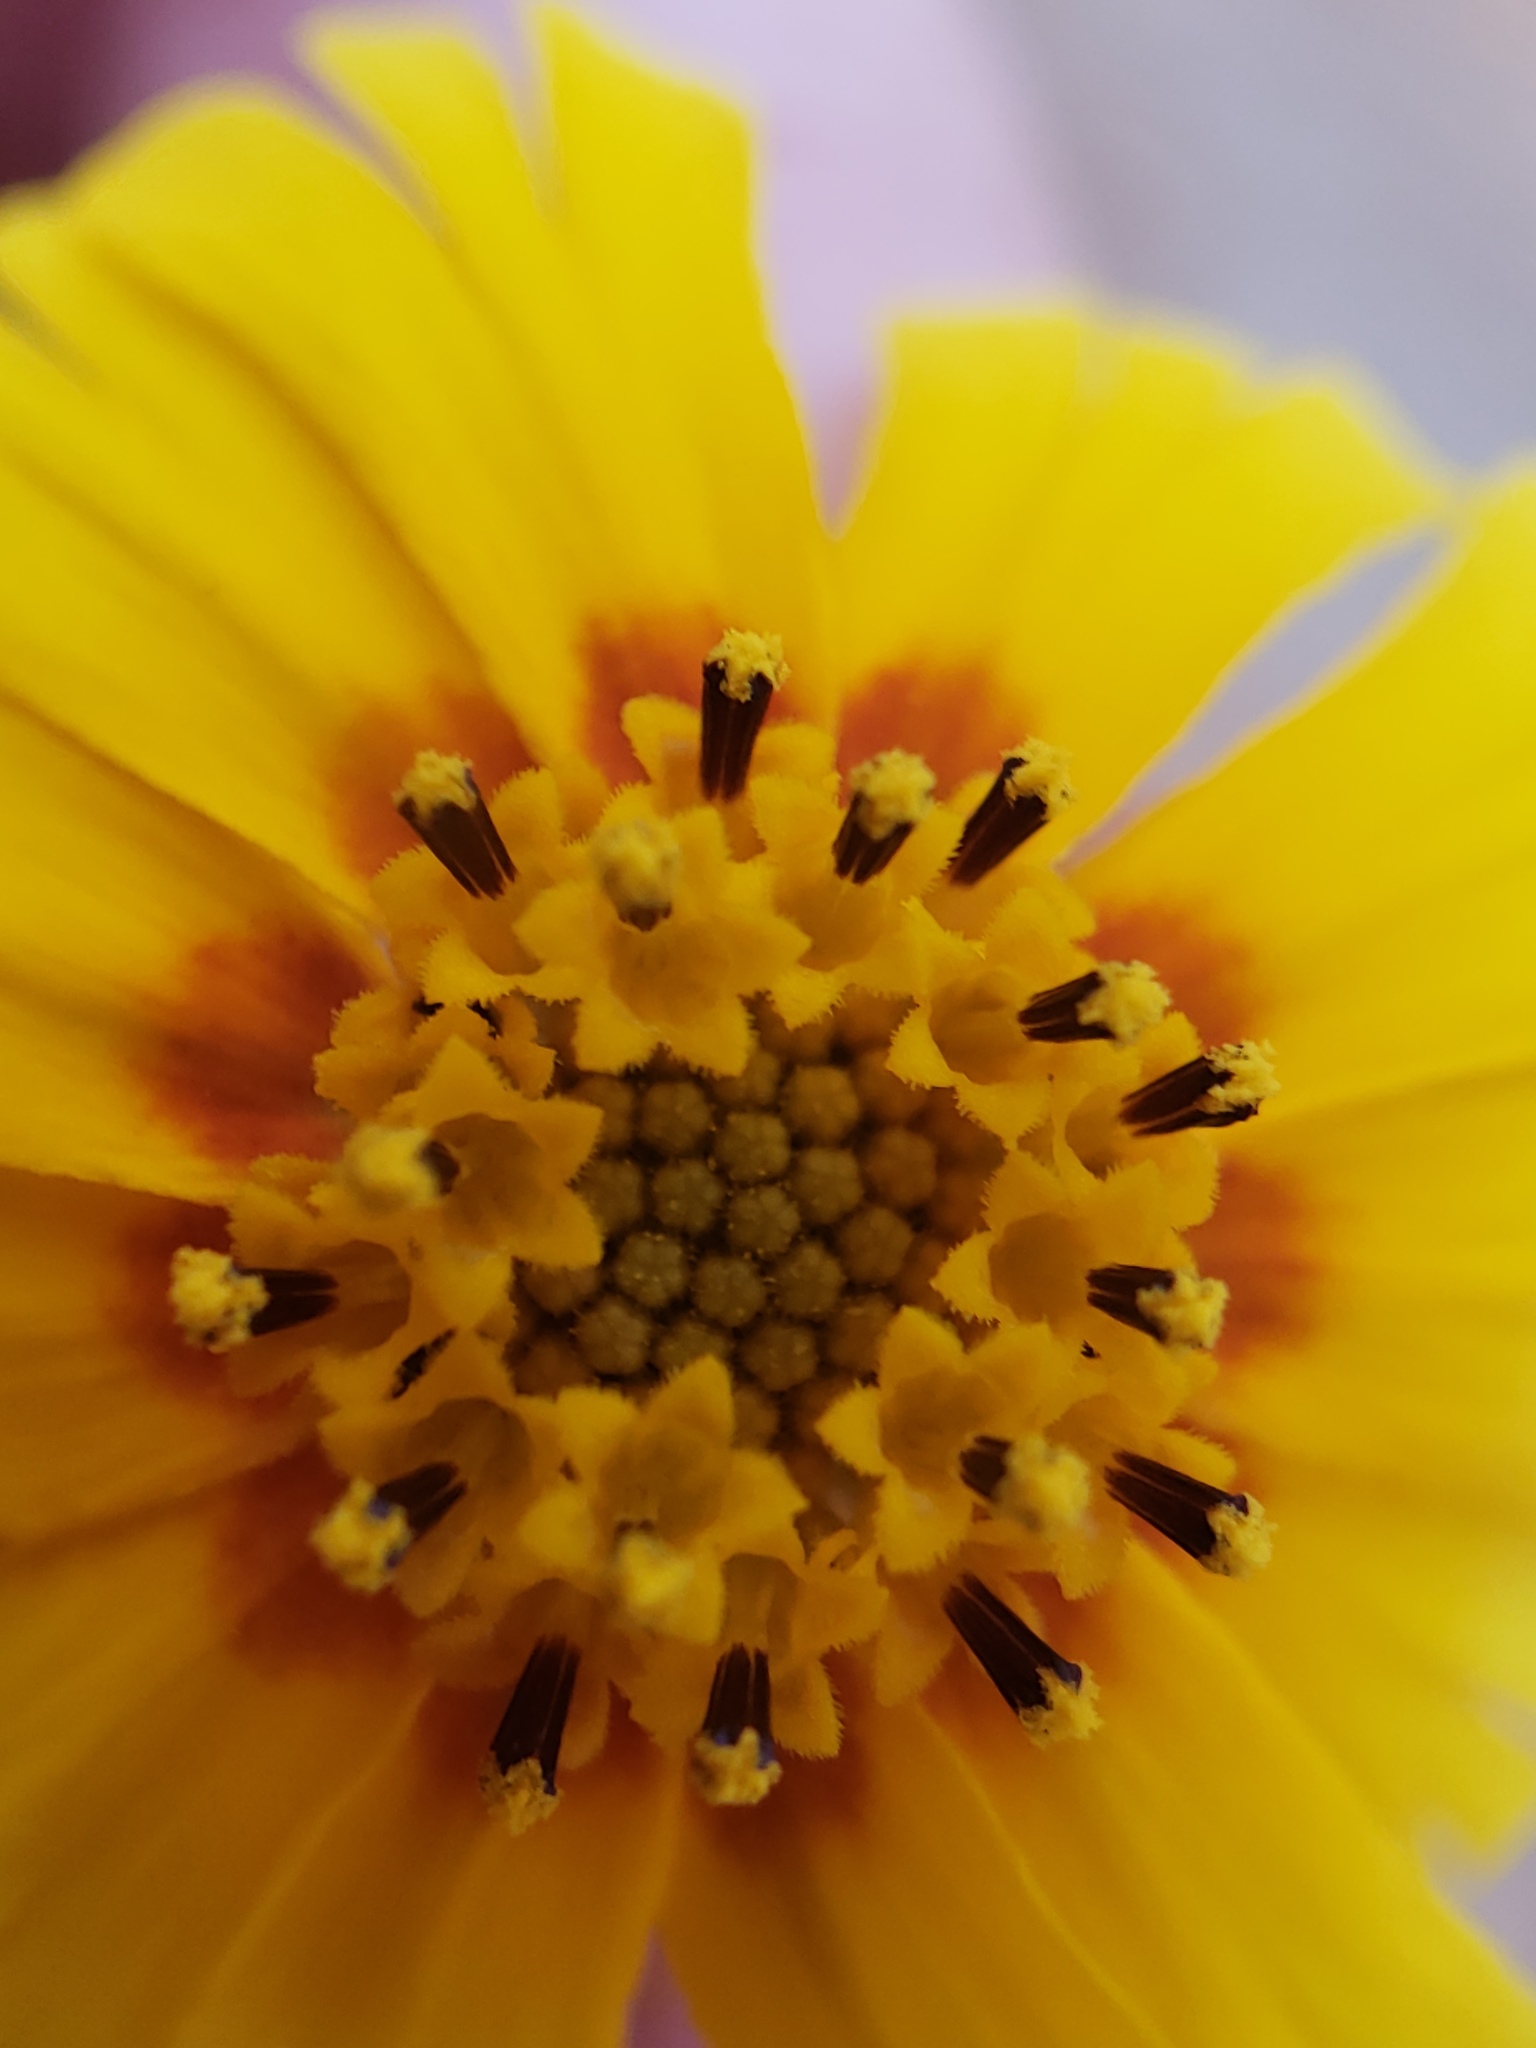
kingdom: Plantae
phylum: Tracheophyta
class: Magnoliopsida
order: Asterales
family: Asteraceae
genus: Madia
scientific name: Madia elegans
